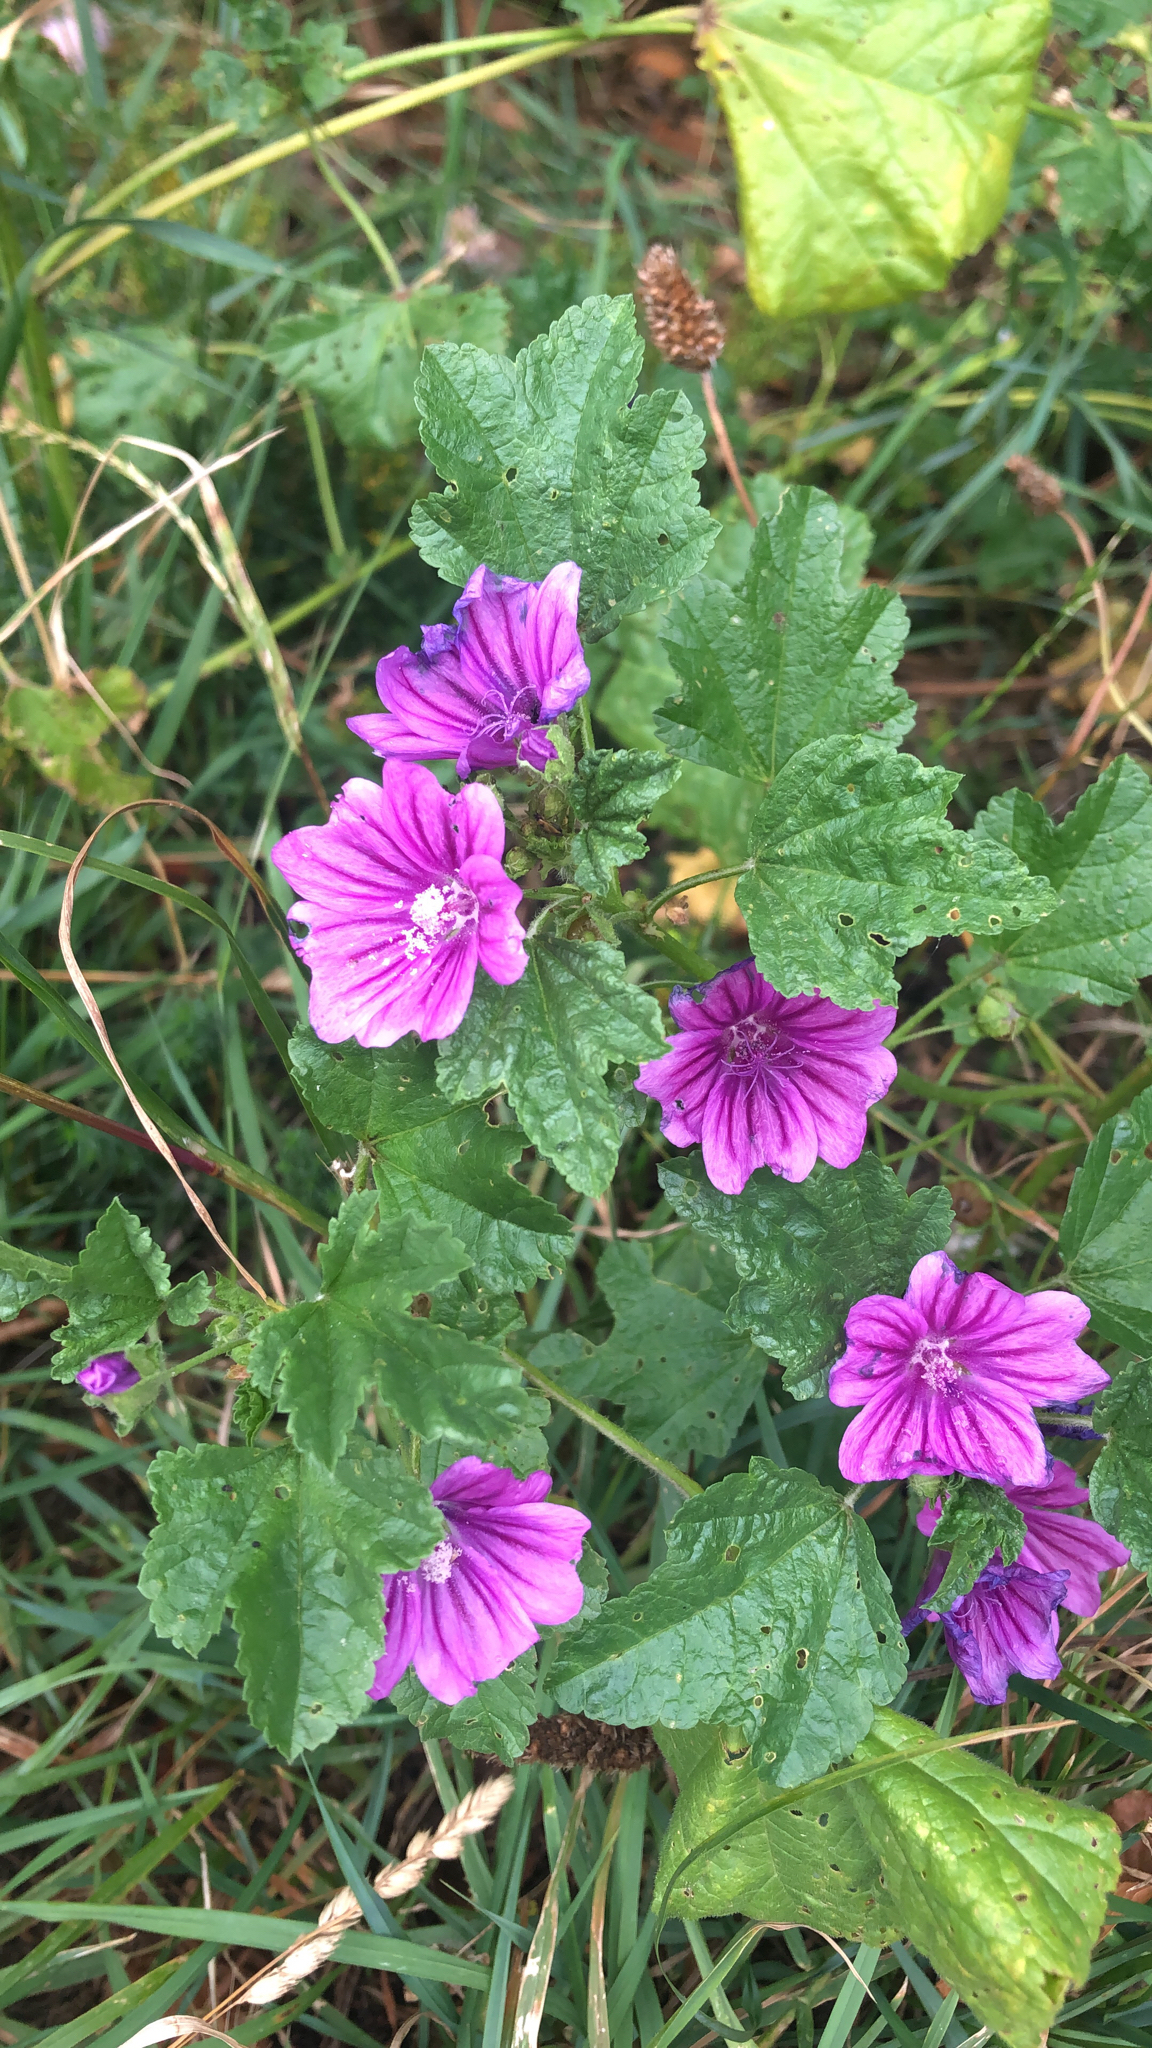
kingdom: Plantae
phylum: Tracheophyta
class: Magnoliopsida
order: Malvales
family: Malvaceae
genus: Malva
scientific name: Malva sylvestris
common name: Common mallow
